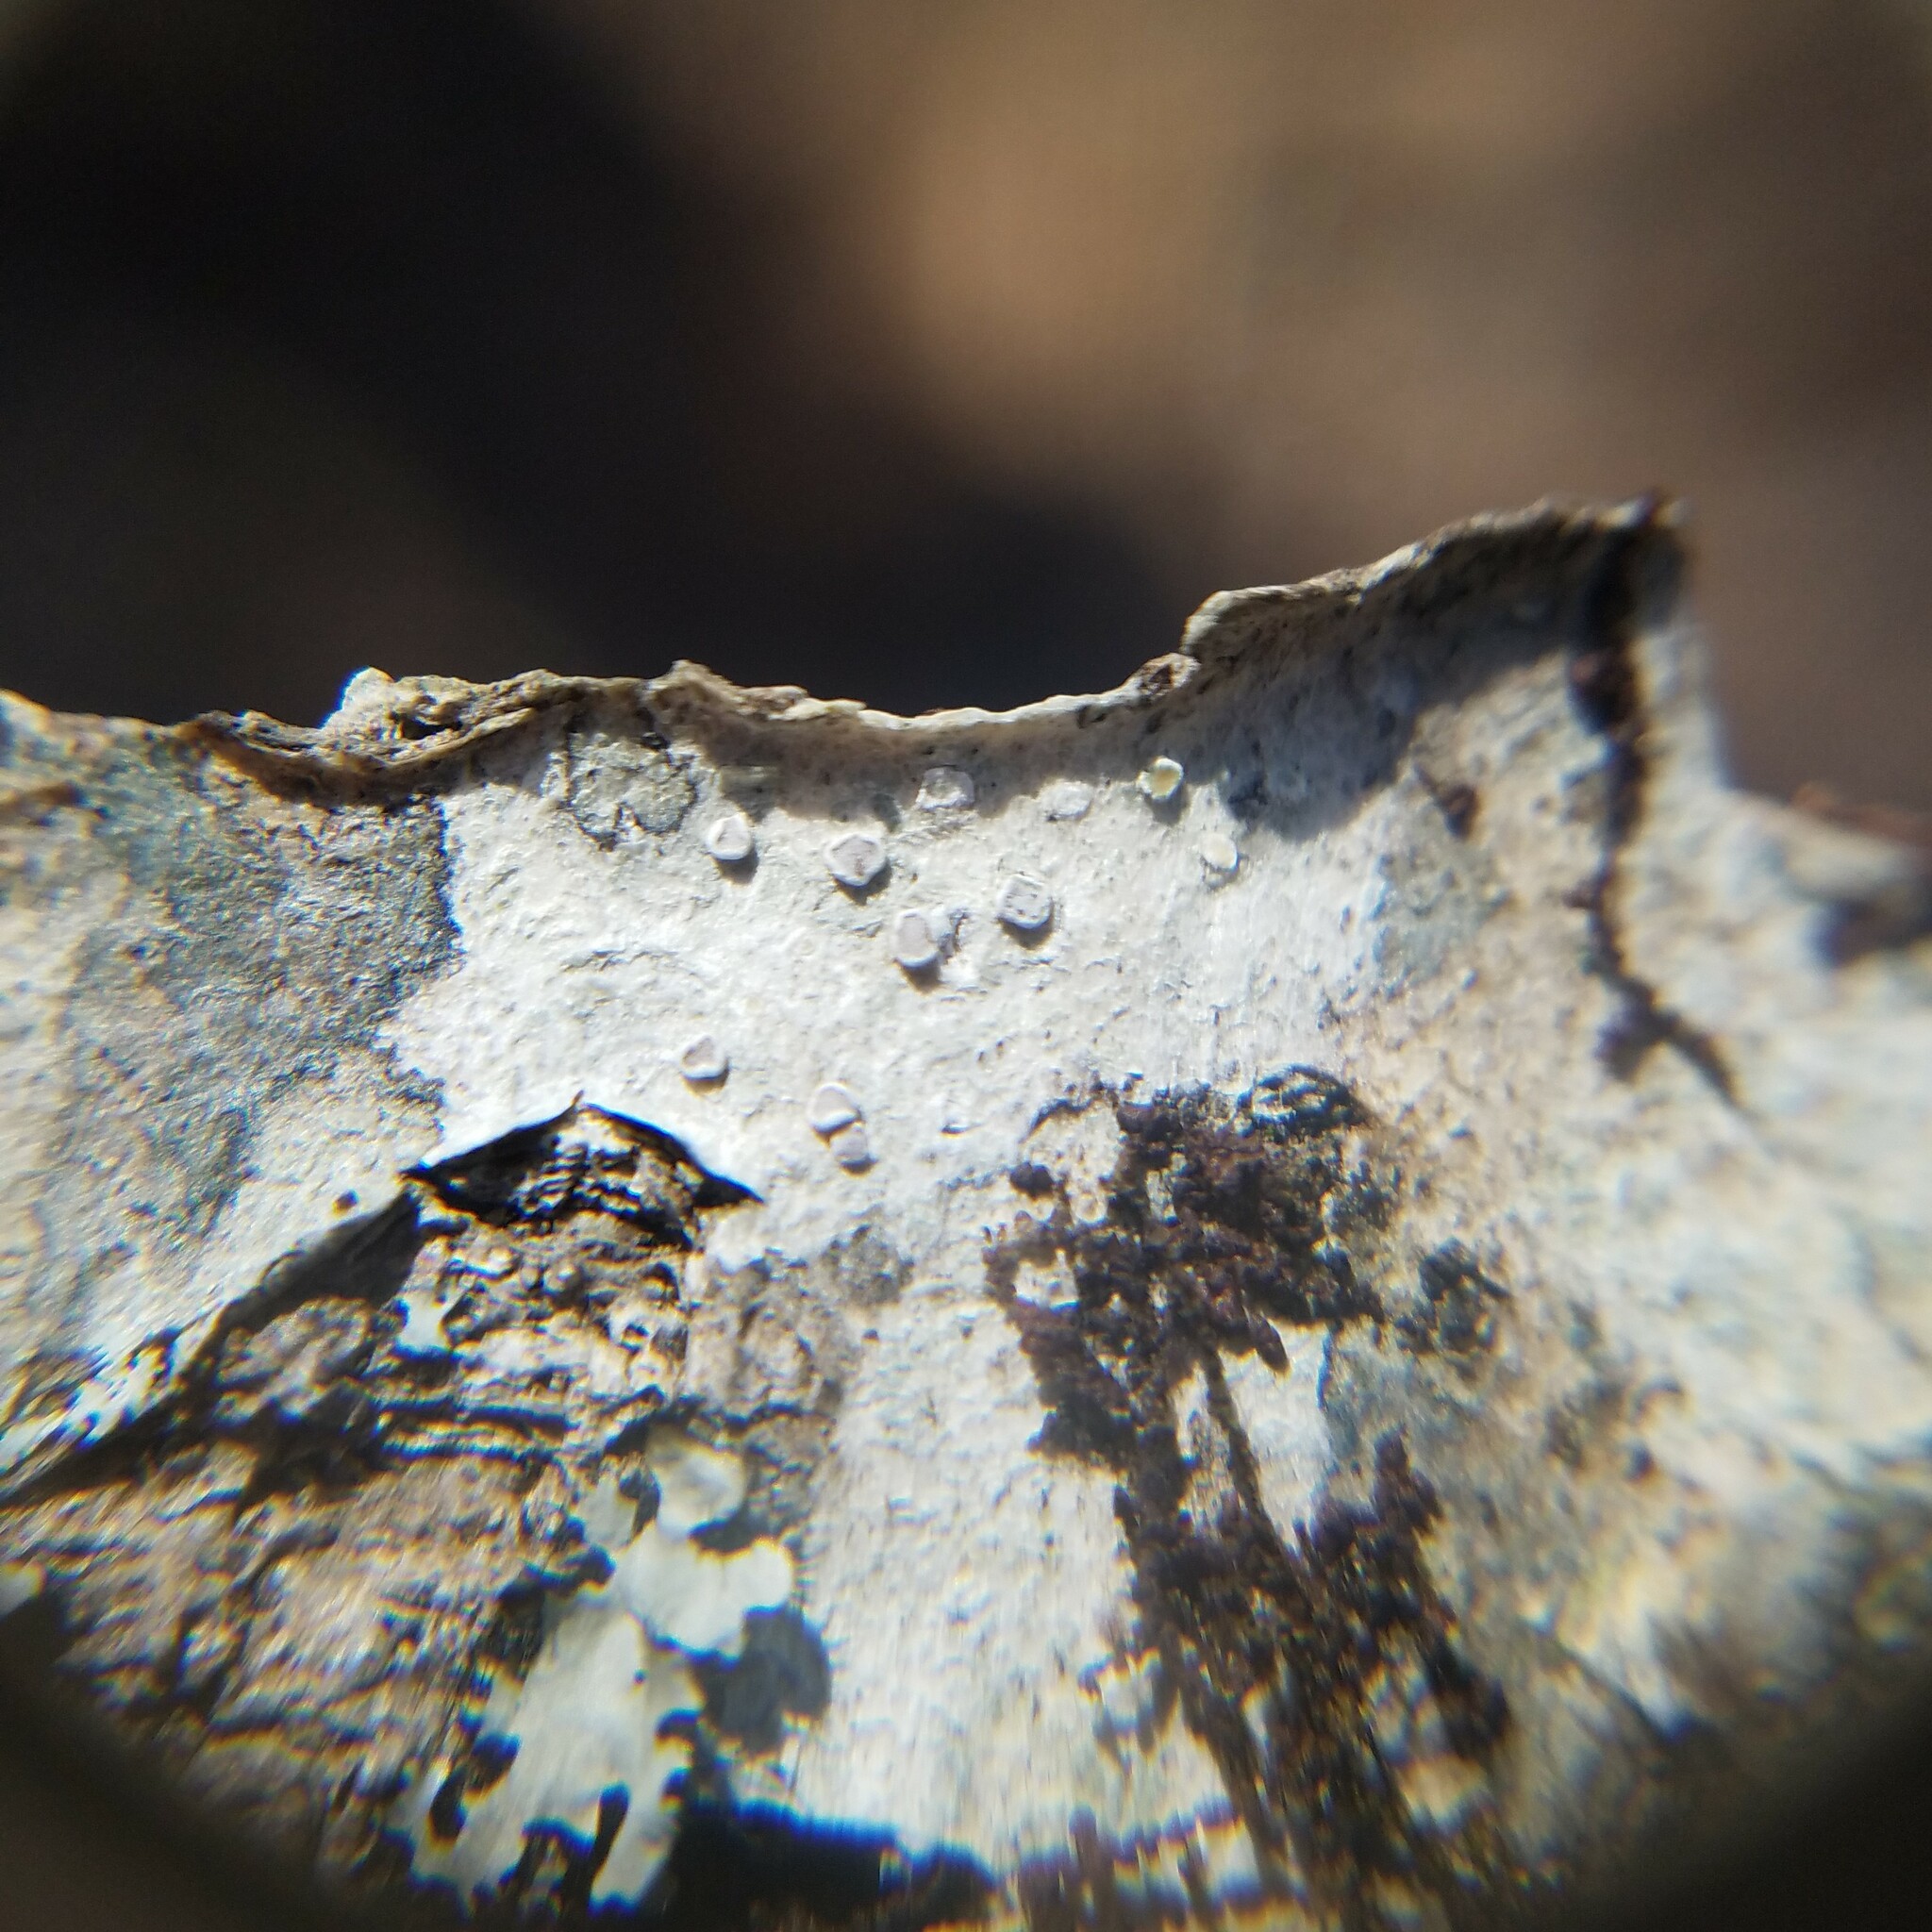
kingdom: Fungi
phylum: Ascomycota
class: Lecanoromycetes
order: Lecanorales
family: Lecanoraceae
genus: Lecanora
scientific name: Lecanora protervula
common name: Lesser dust my discs
